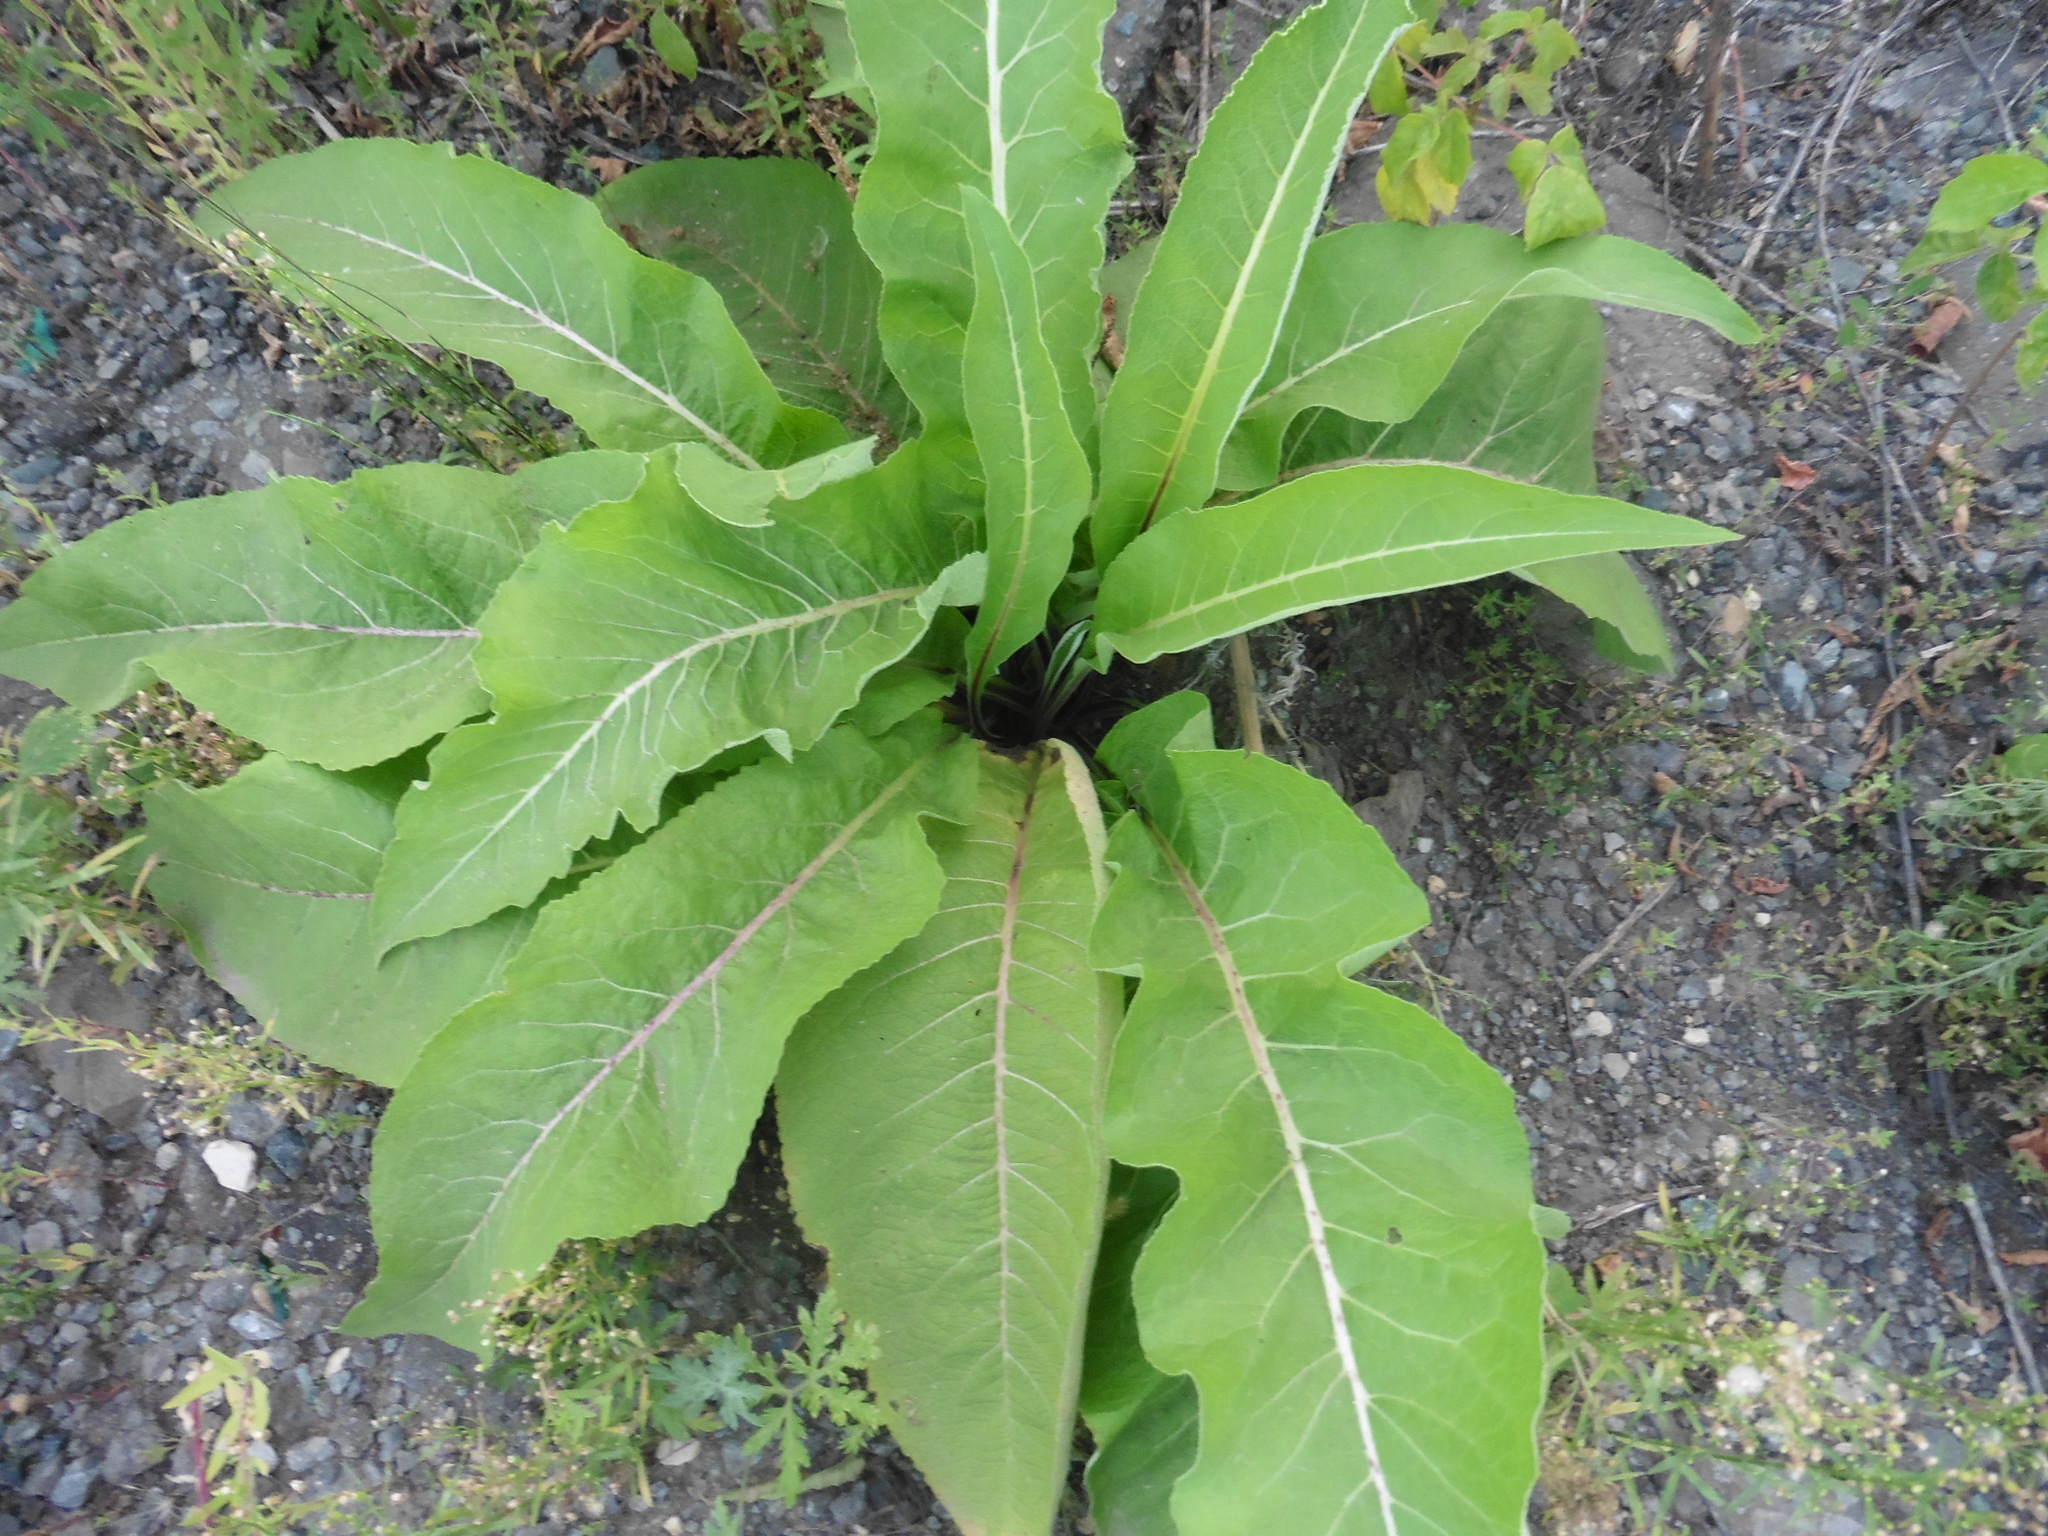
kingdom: Plantae
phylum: Tracheophyta
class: Magnoliopsida
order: Asterales
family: Asteraceae
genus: Inula
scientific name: Inula helenium
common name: Elecampane
